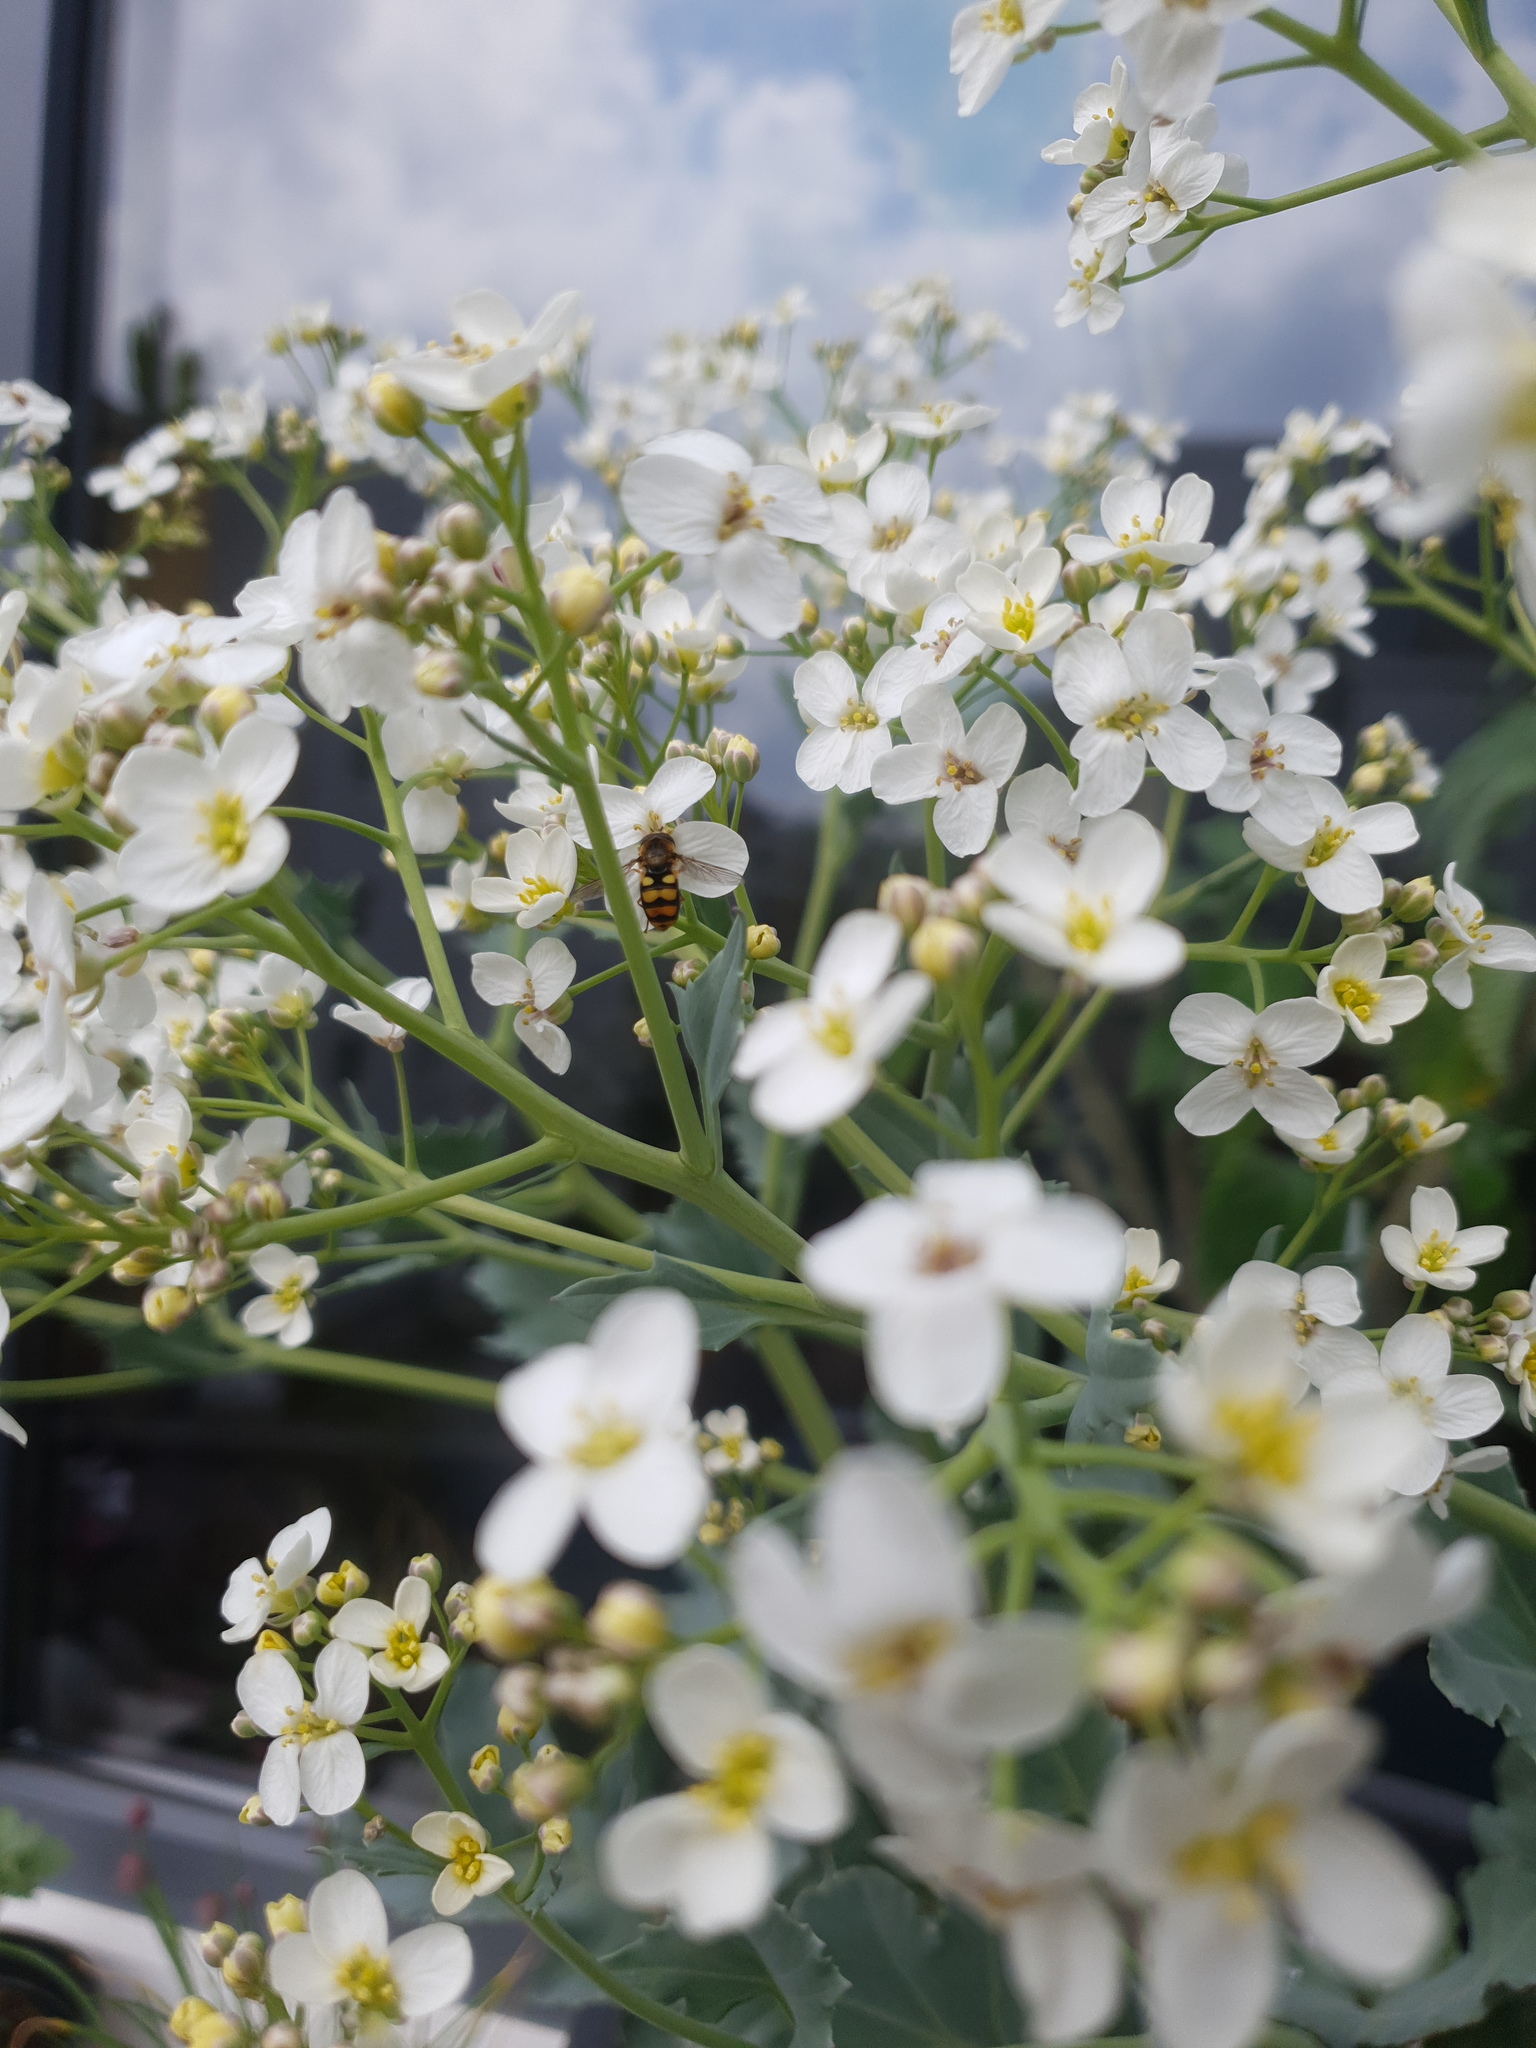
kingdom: Animalia
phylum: Arthropoda
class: Insecta
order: Diptera
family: Syrphidae
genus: Eupeodes
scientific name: Eupeodes latifasciatus
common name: Variable aphideater
